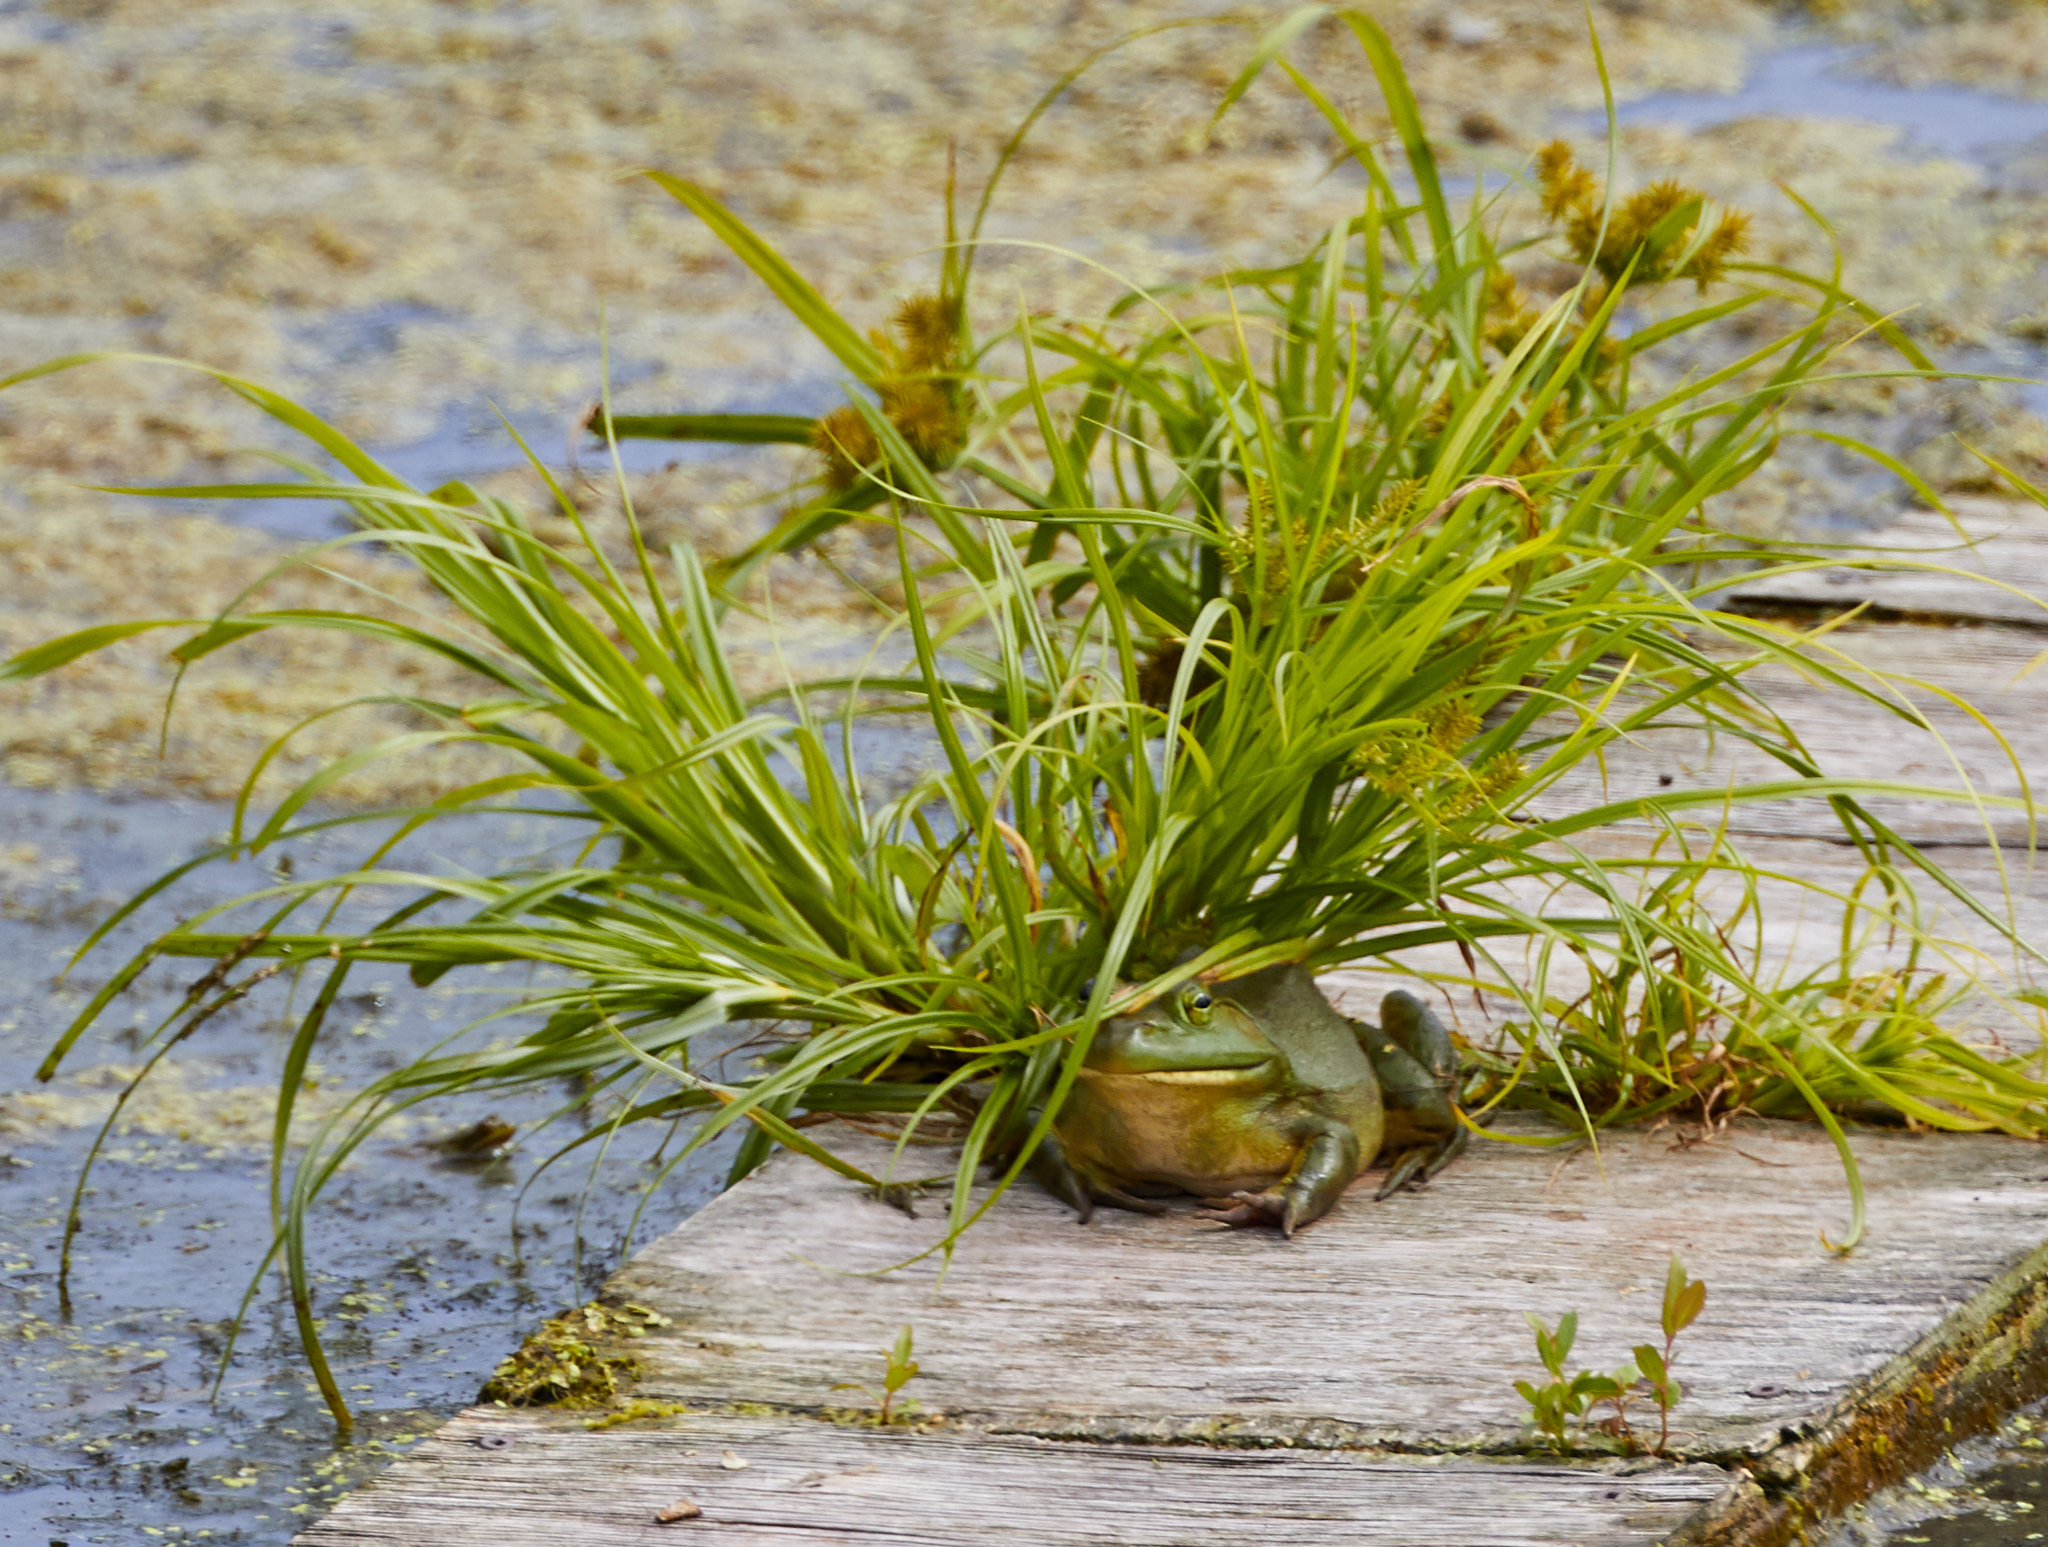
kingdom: Animalia
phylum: Chordata
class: Amphibia
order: Anura
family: Ranidae
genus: Lithobates
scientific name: Lithobates catesbeianus
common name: American bullfrog
